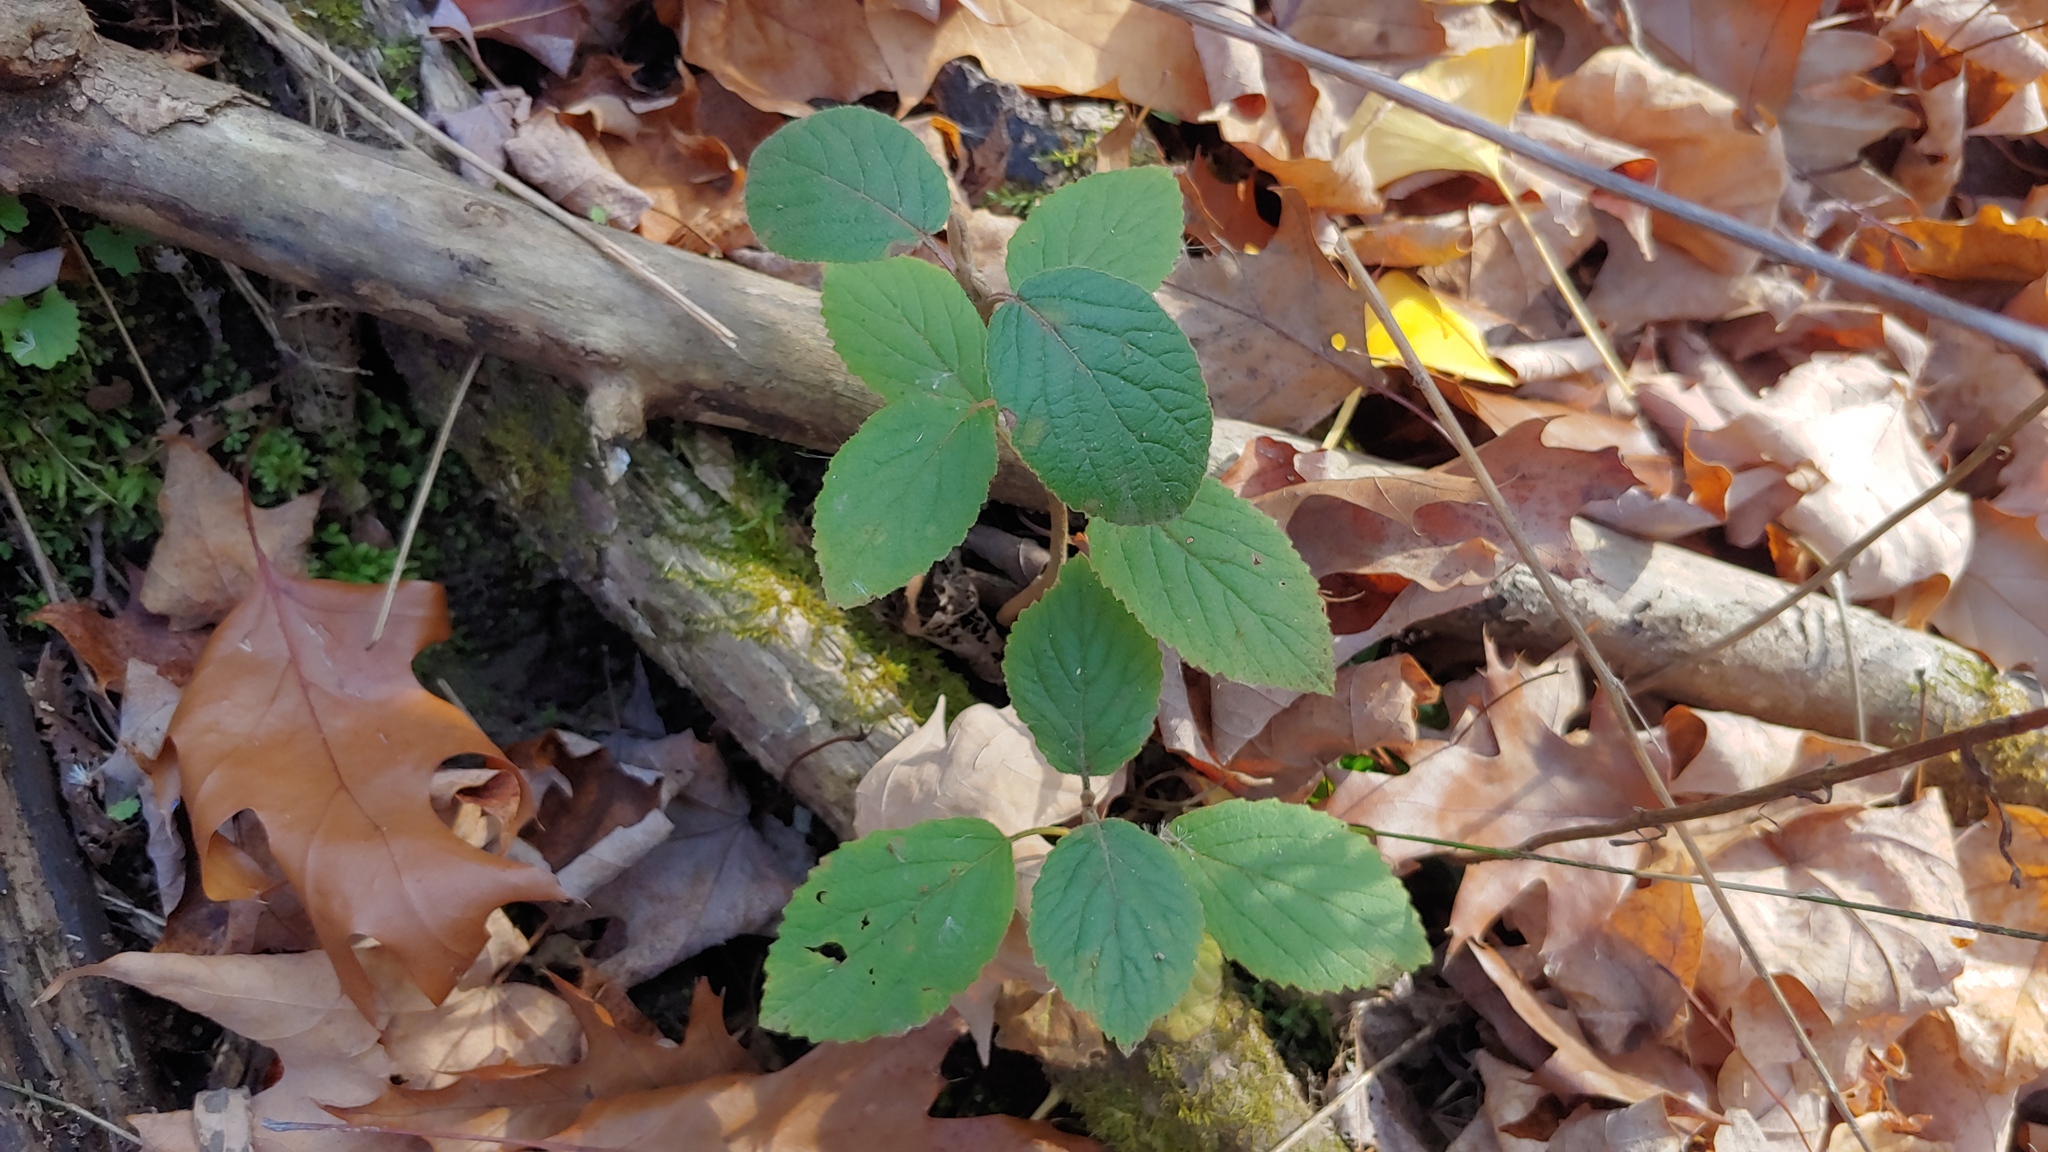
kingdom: Plantae
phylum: Tracheophyta
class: Magnoliopsida
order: Dipsacales
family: Viburnaceae
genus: Viburnum
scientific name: Viburnum lantana
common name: Wayfaring tree
